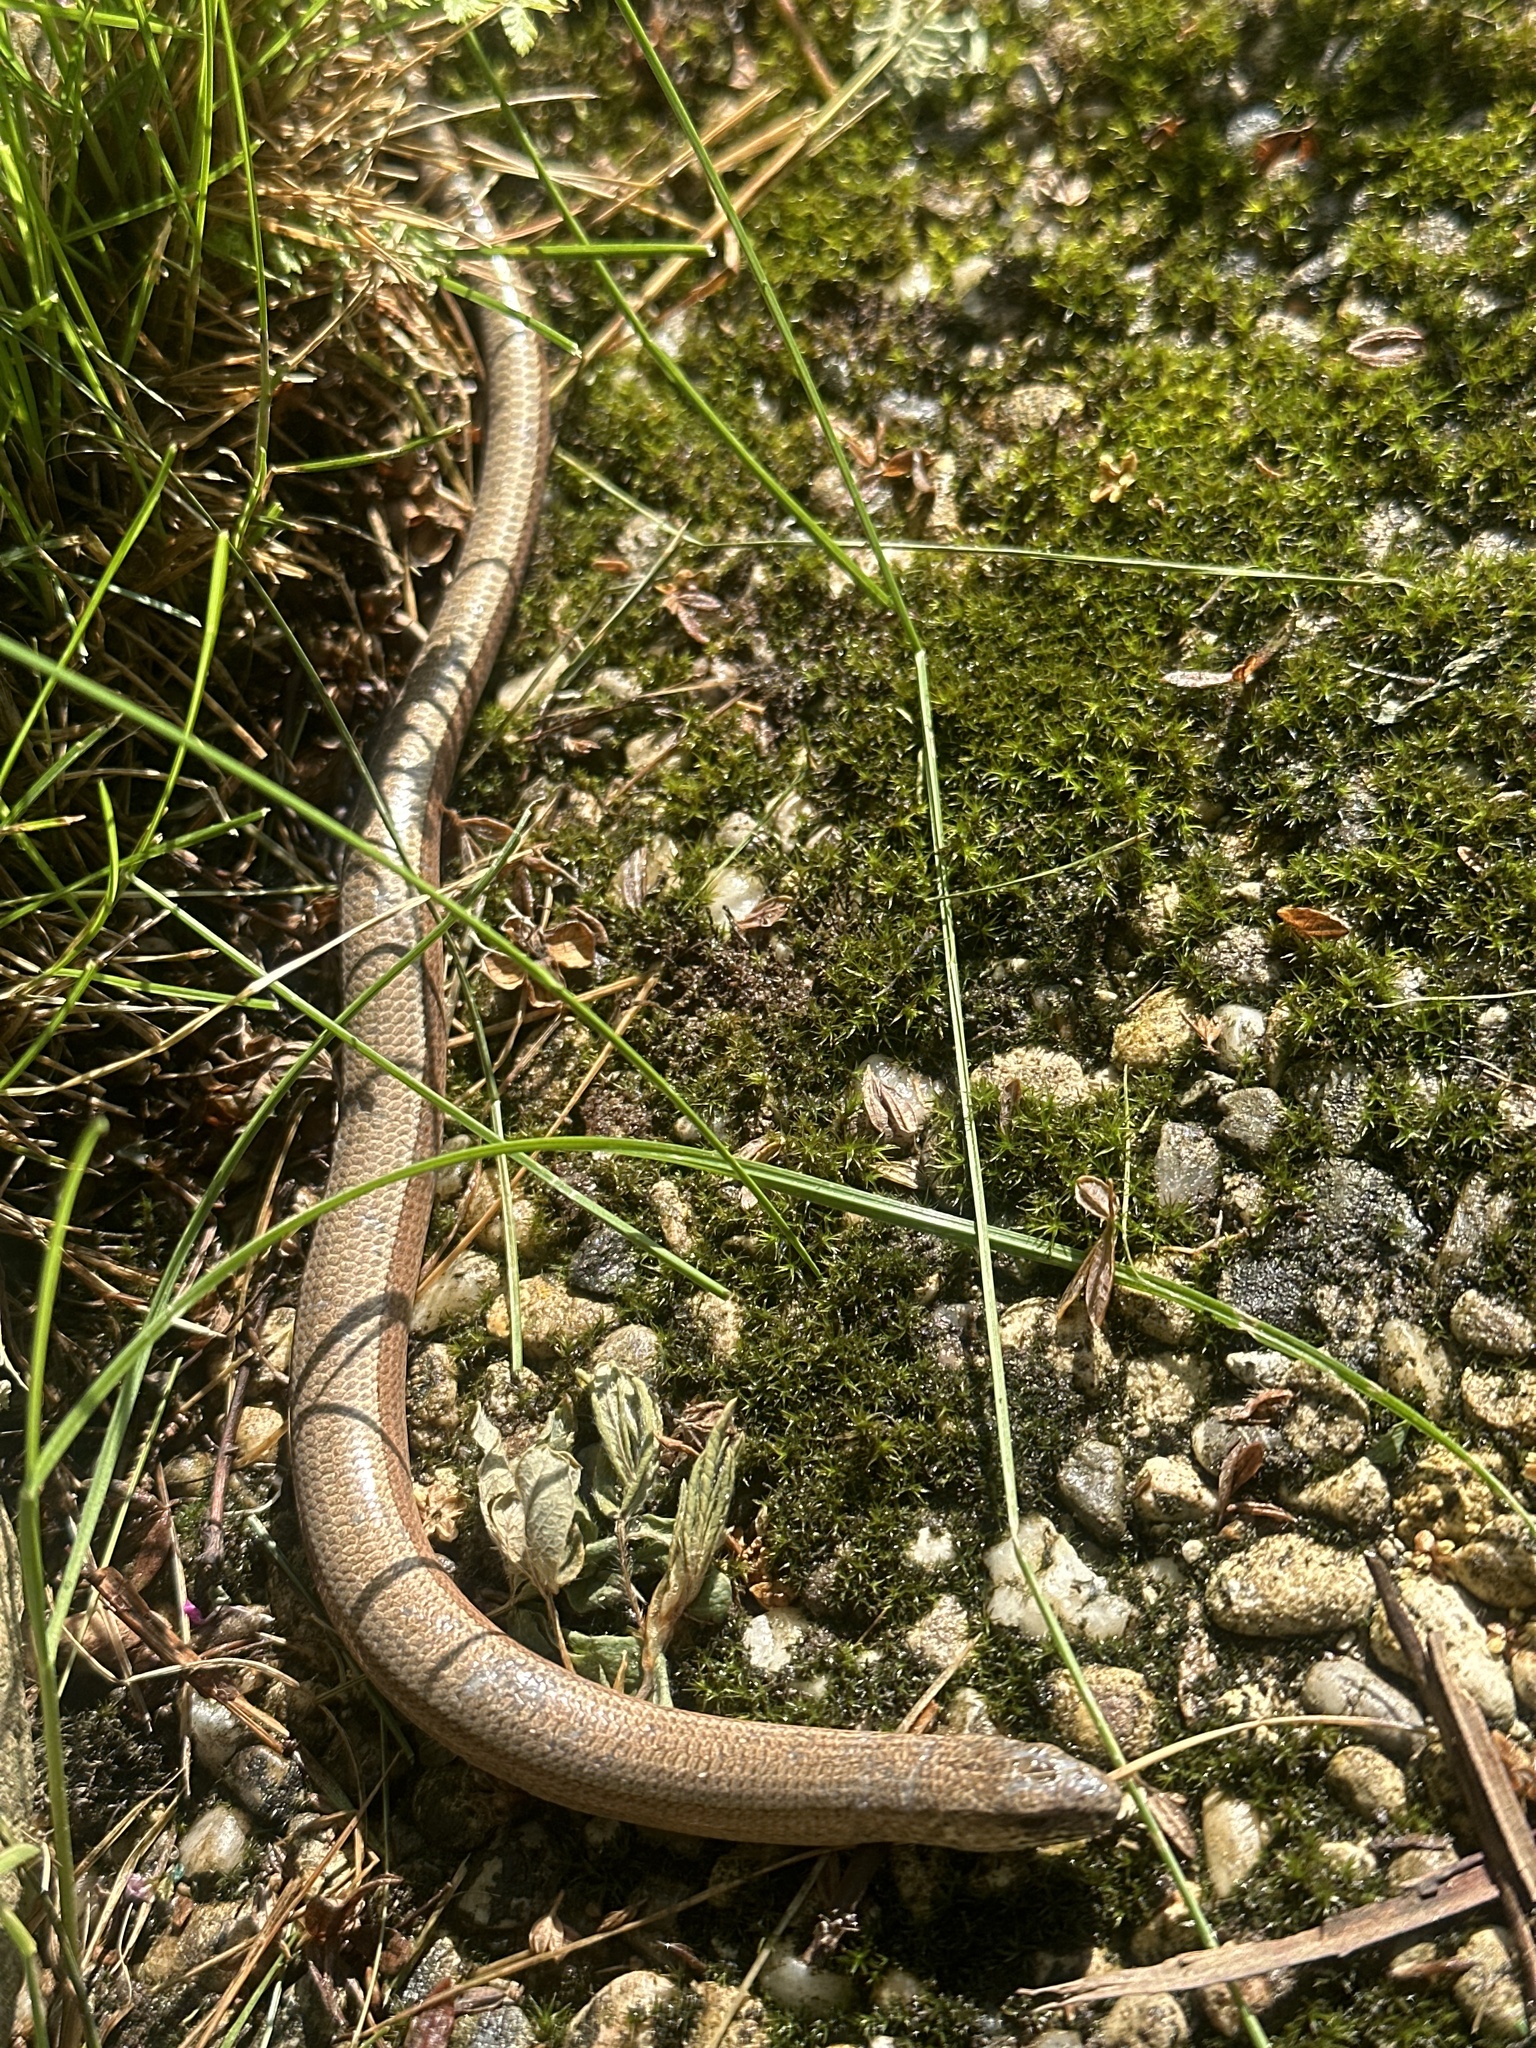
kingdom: Animalia
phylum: Chordata
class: Squamata
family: Anguidae
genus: Anguis
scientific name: Anguis fragilis
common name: Slow worm
